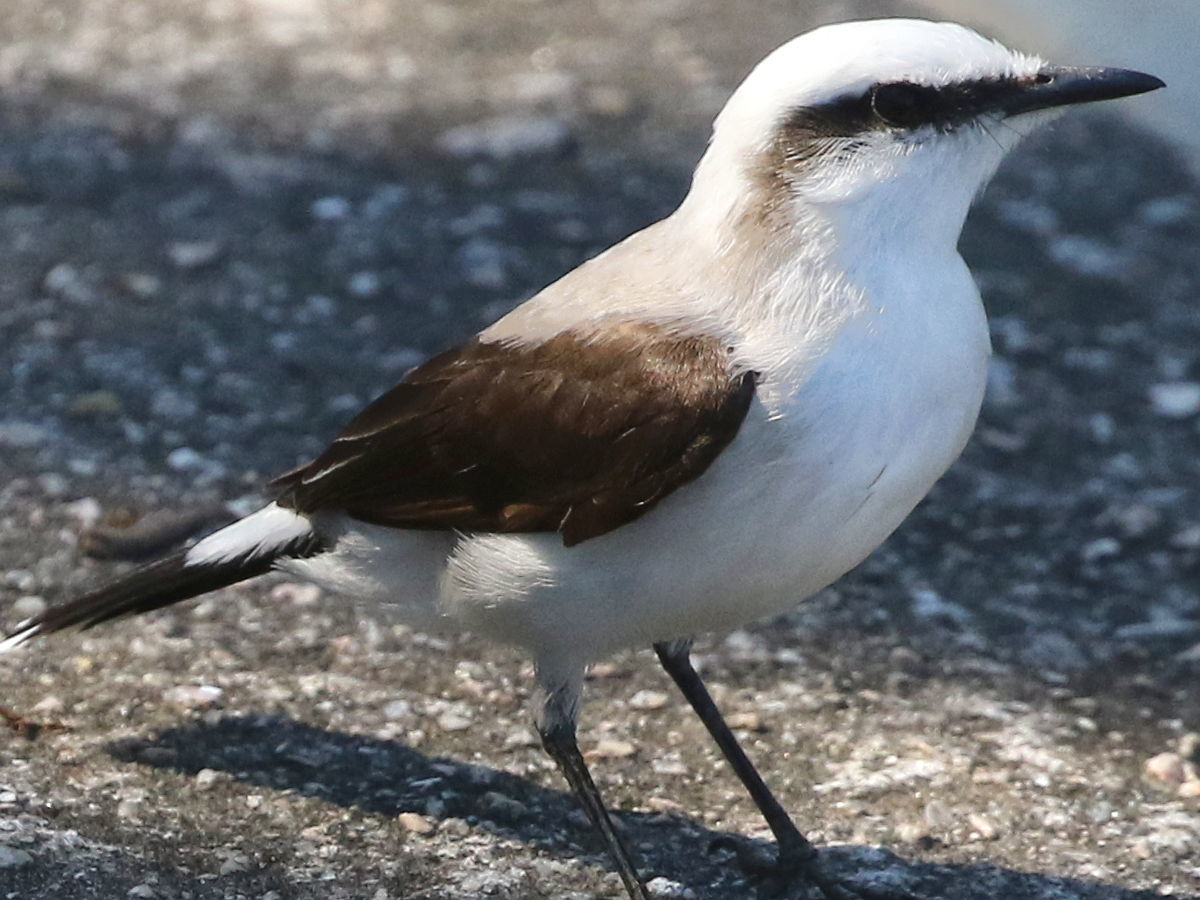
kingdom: Animalia
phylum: Chordata
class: Aves
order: Passeriformes
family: Tyrannidae
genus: Fluvicola
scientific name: Fluvicola nengeta
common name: Masked water tyrant
